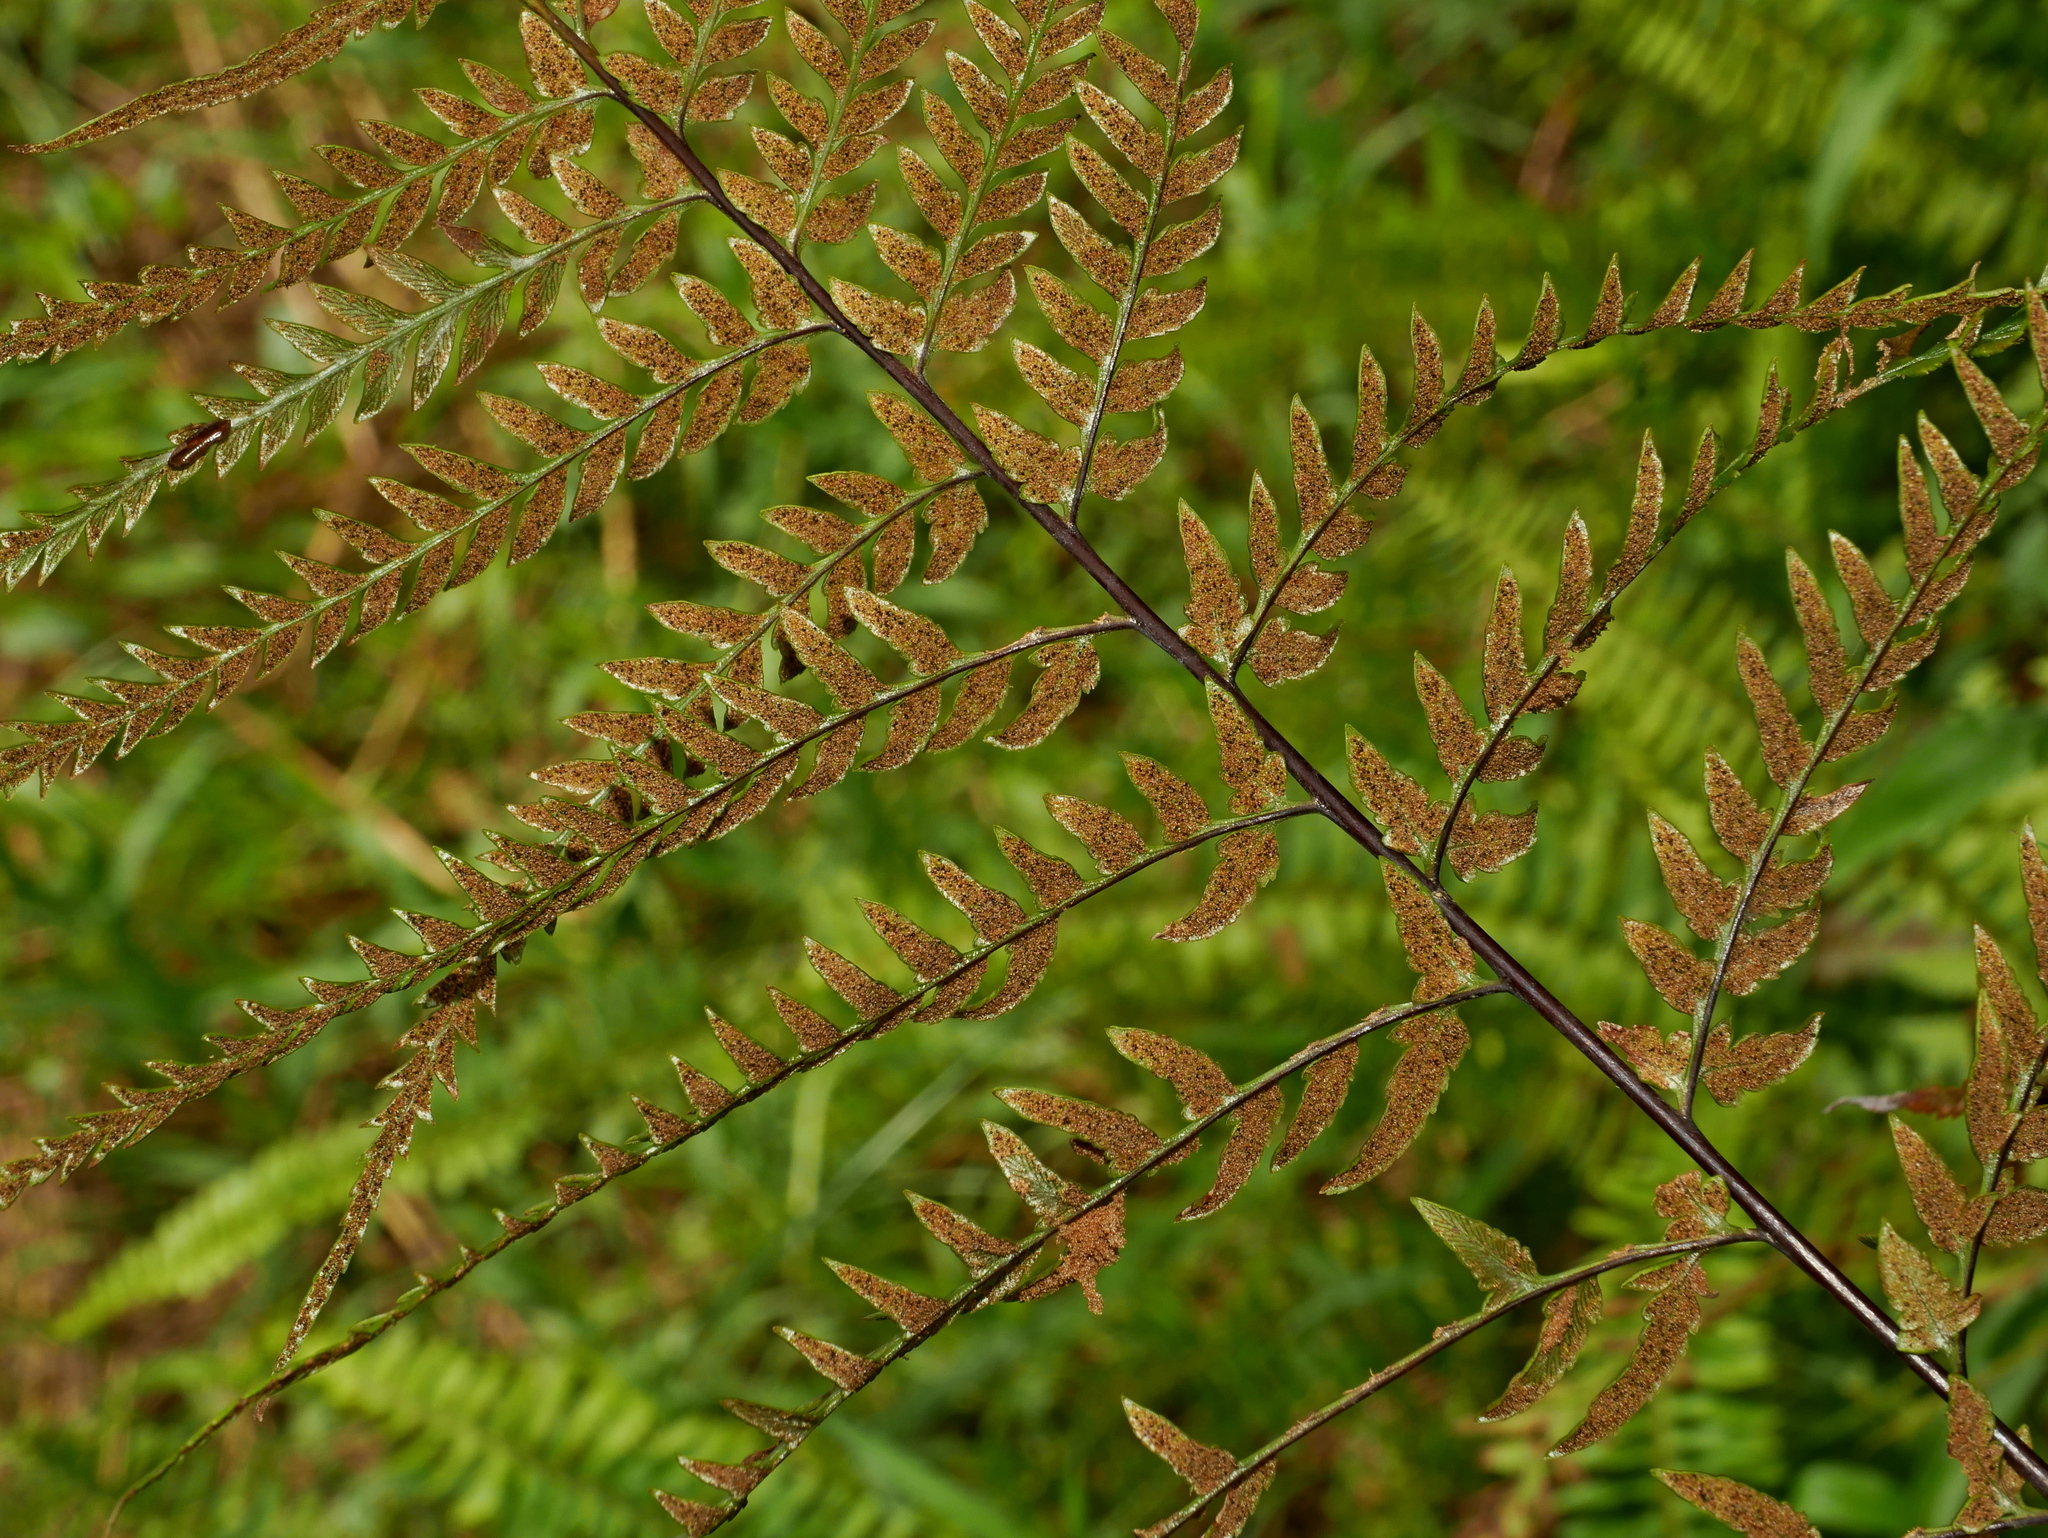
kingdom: Plantae
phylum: Tracheophyta
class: Polypodiopsida
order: Polypodiales
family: Pteridaceae
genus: Pityrogramma
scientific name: Pityrogramma calomelanos
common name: Dixie silverback fern
